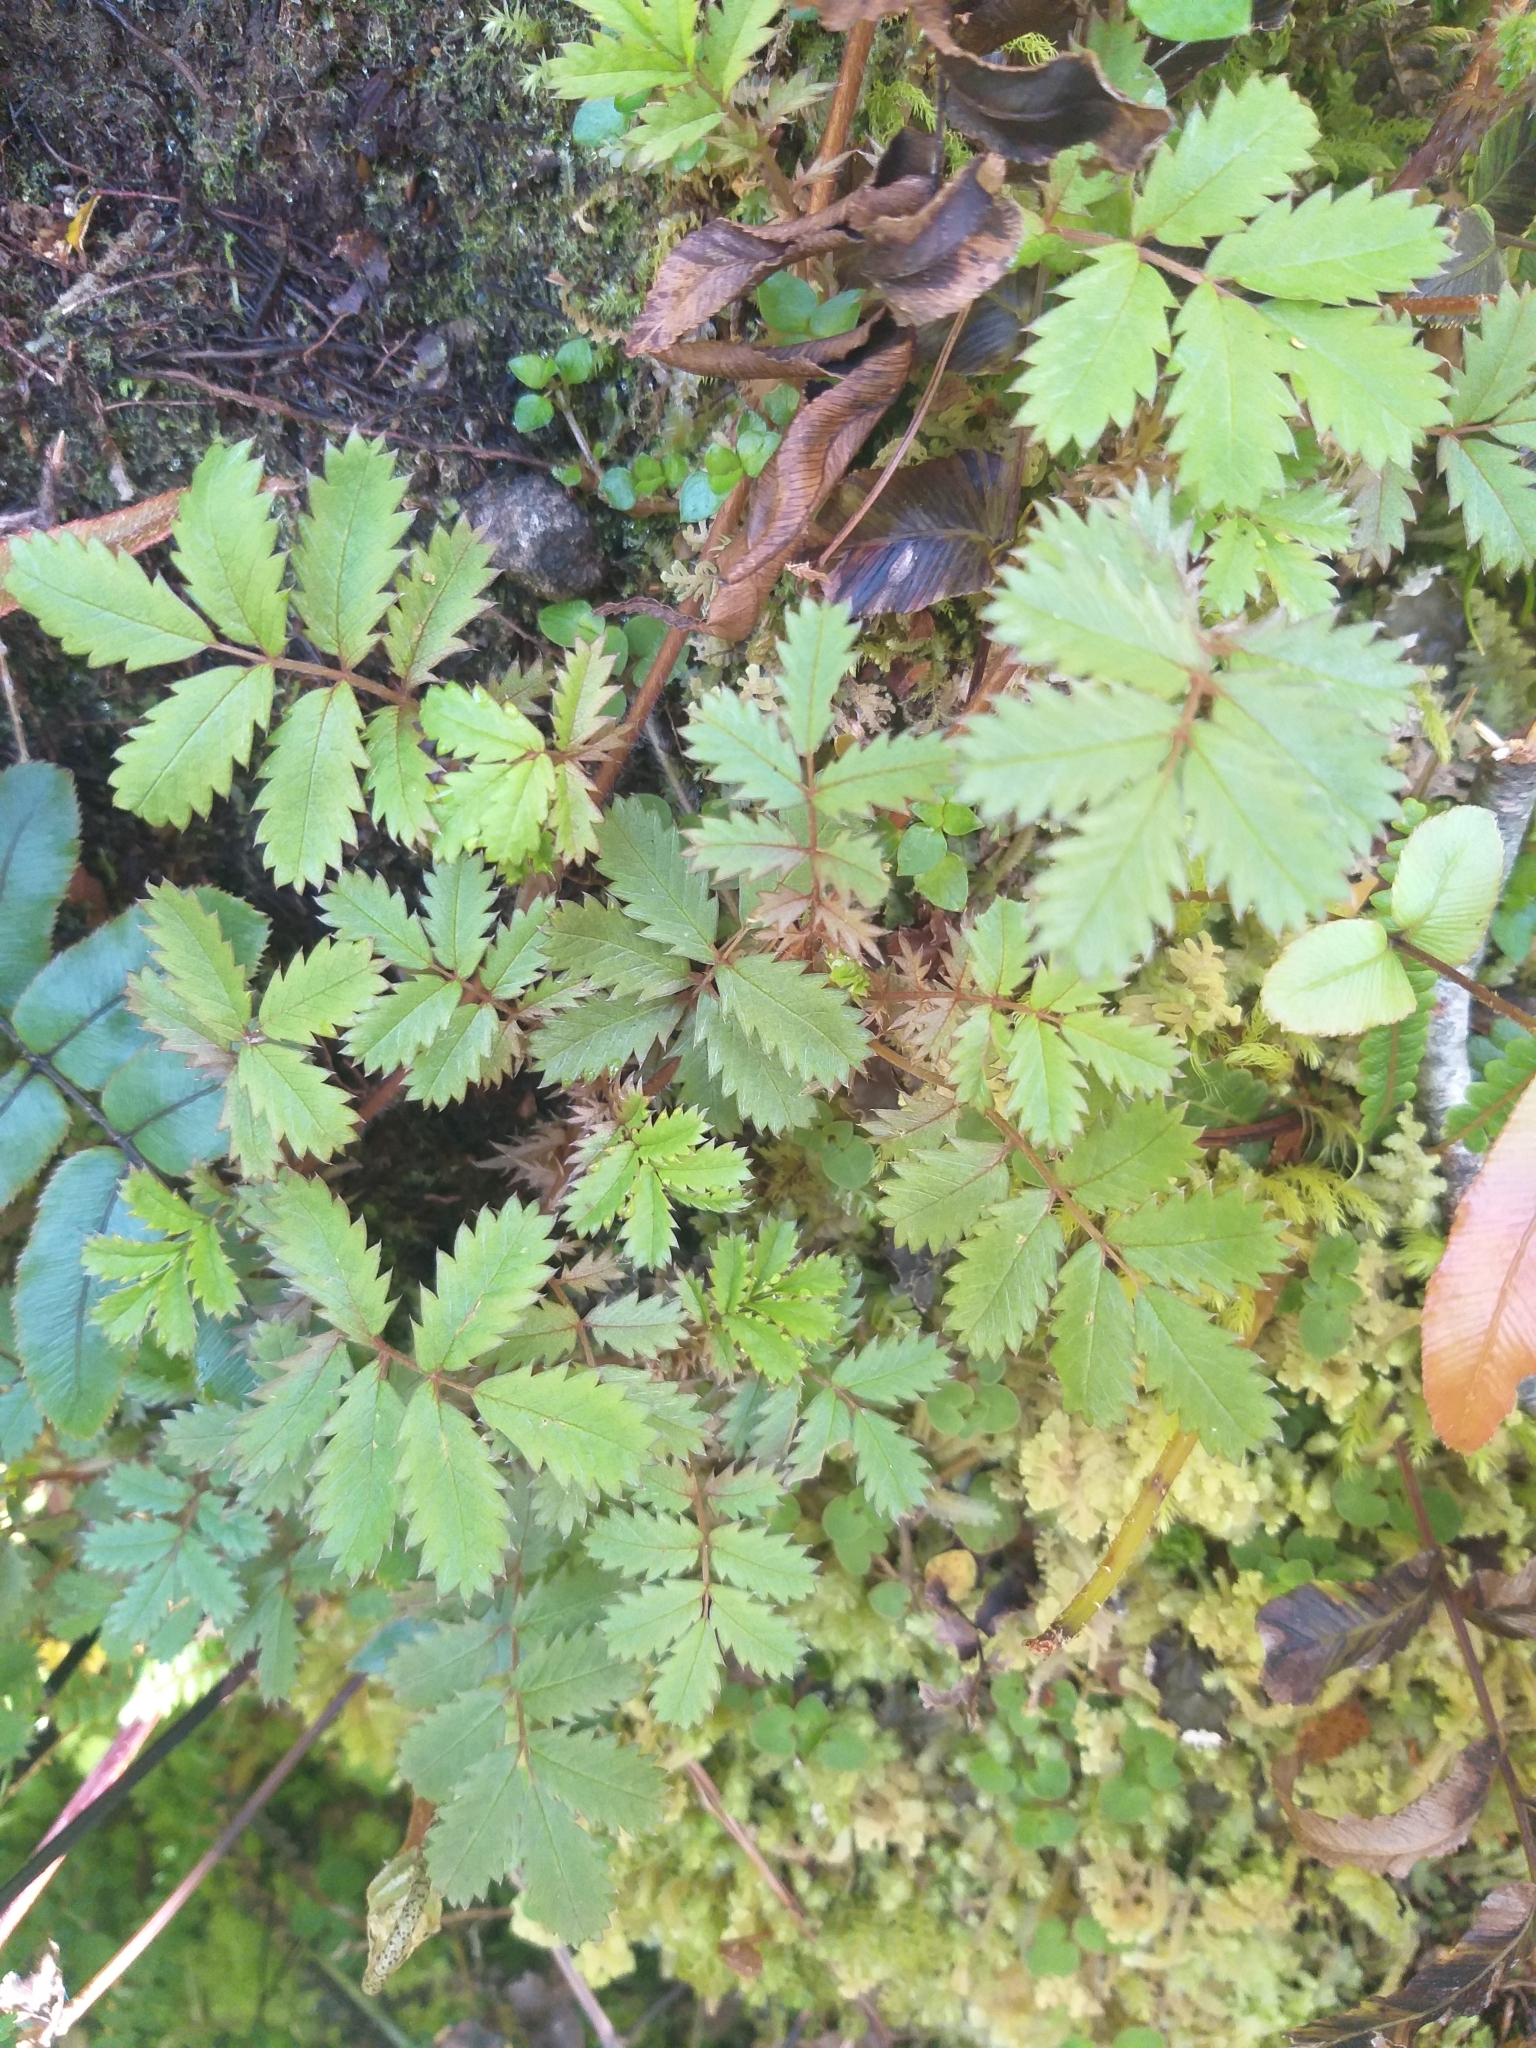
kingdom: Plantae
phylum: Tracheophyta
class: Magnoliopsida
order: Rosales
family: Rosaceae
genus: Acaena
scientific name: Acaena anserinifolia
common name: Bronze pirri-pirri-bur
